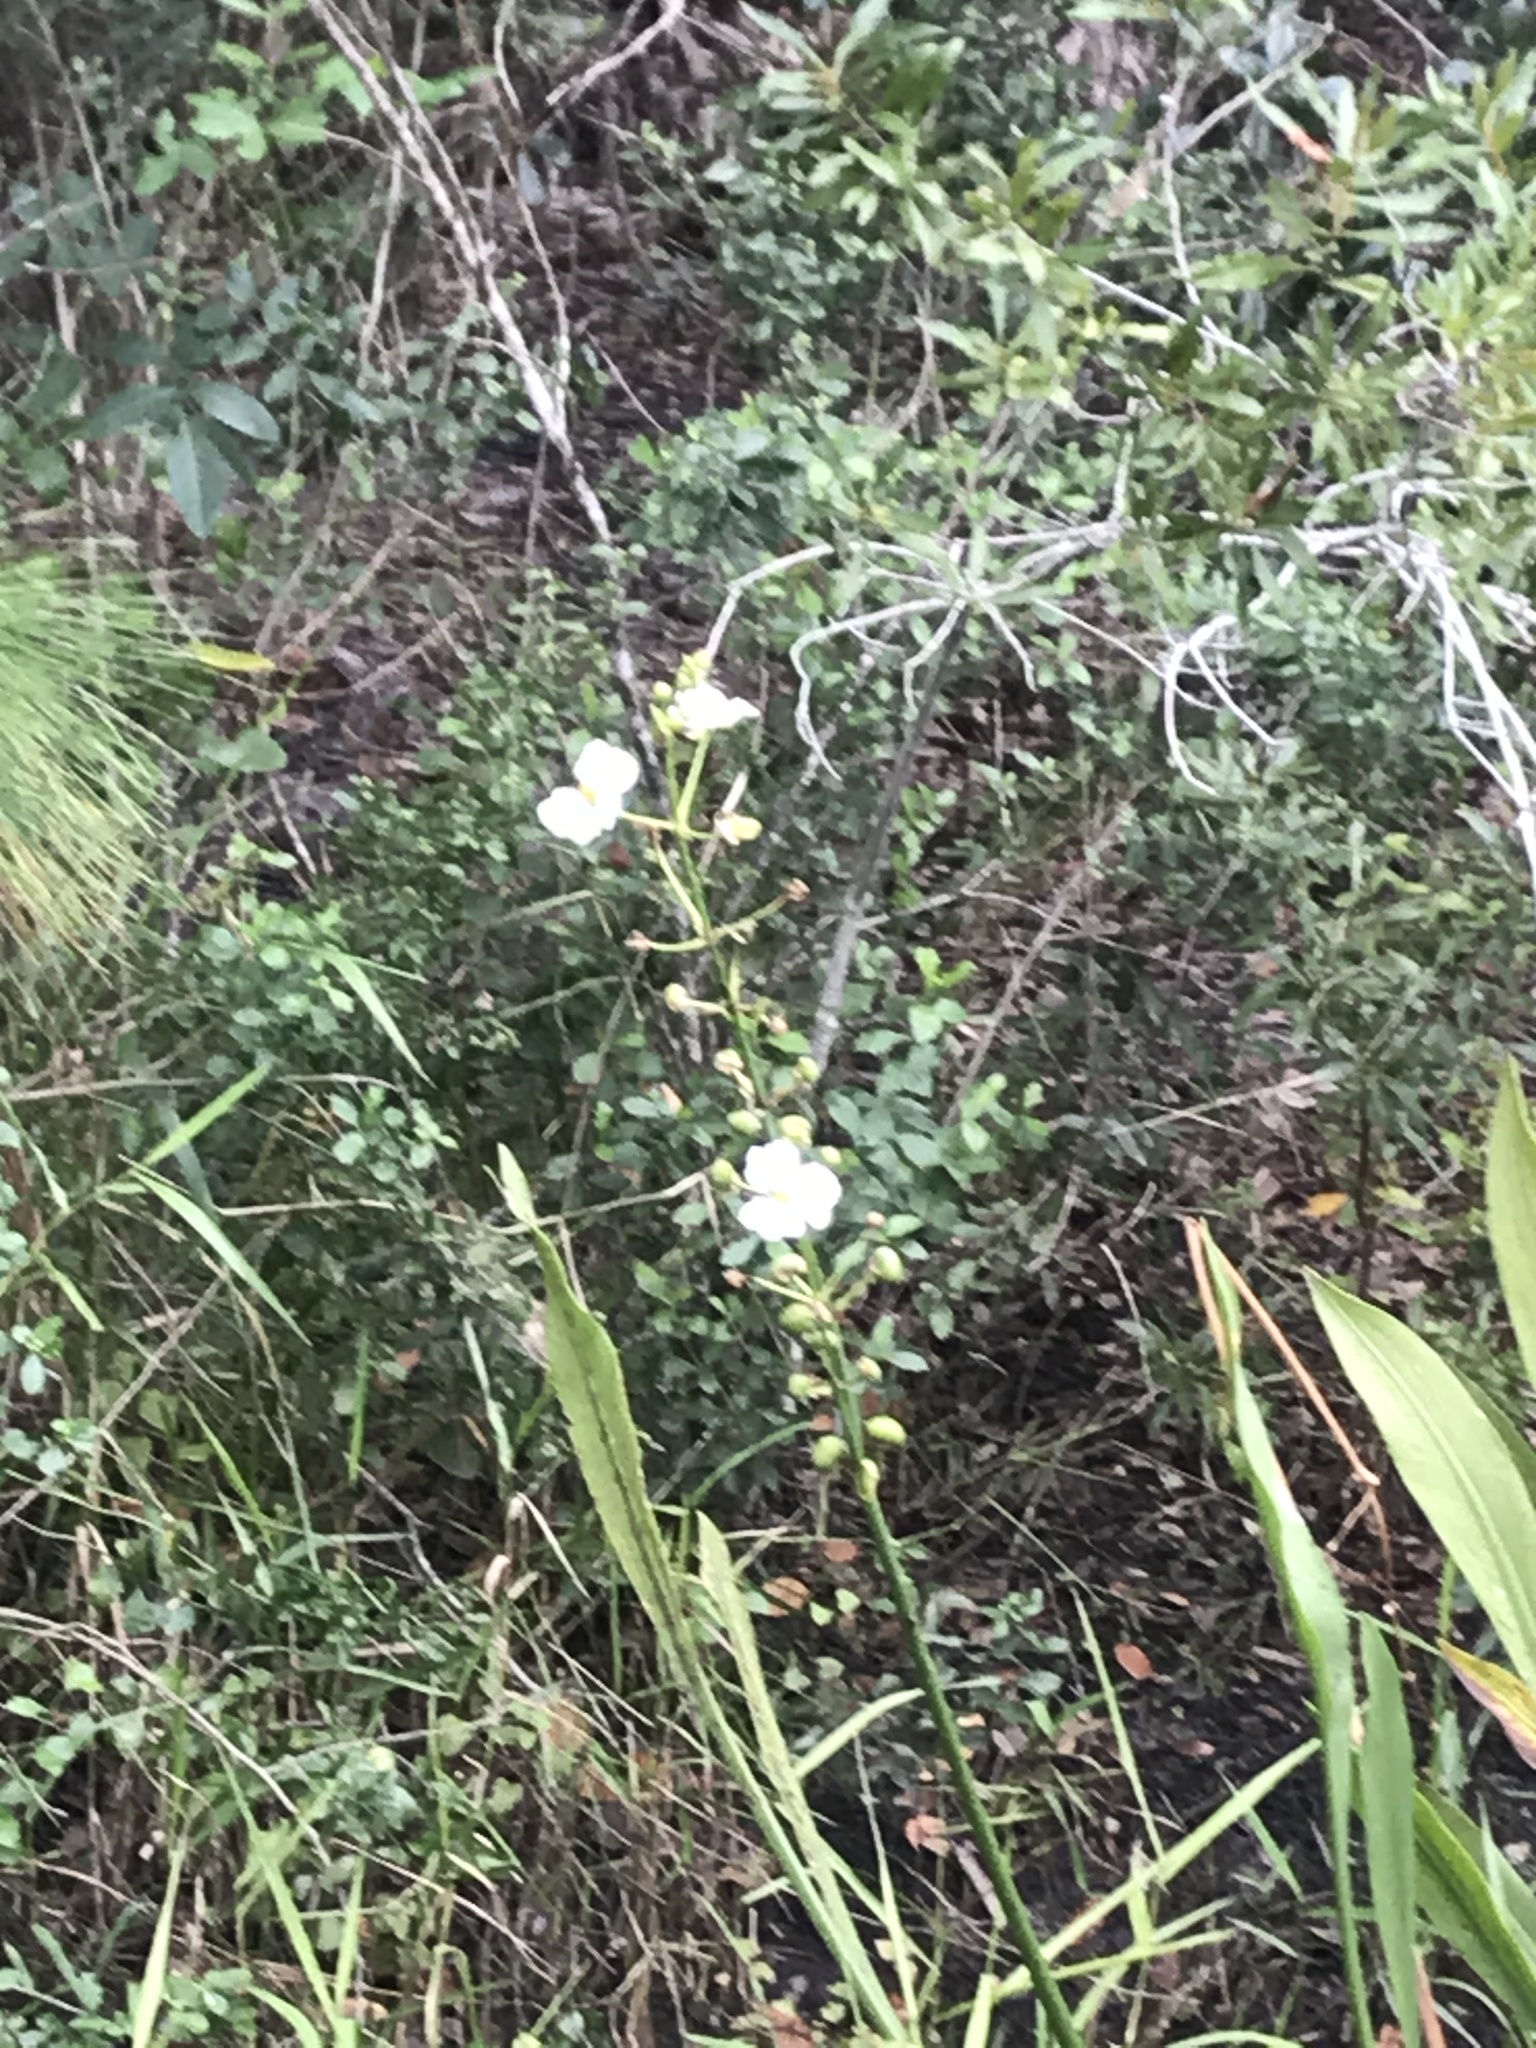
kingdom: Plantae
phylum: Tracheophyta
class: Liliopsida
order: Alismatales
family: Alismataceae
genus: Sagittaria
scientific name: Sagittaria lancifolia
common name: Lance-leaf arrowhead
